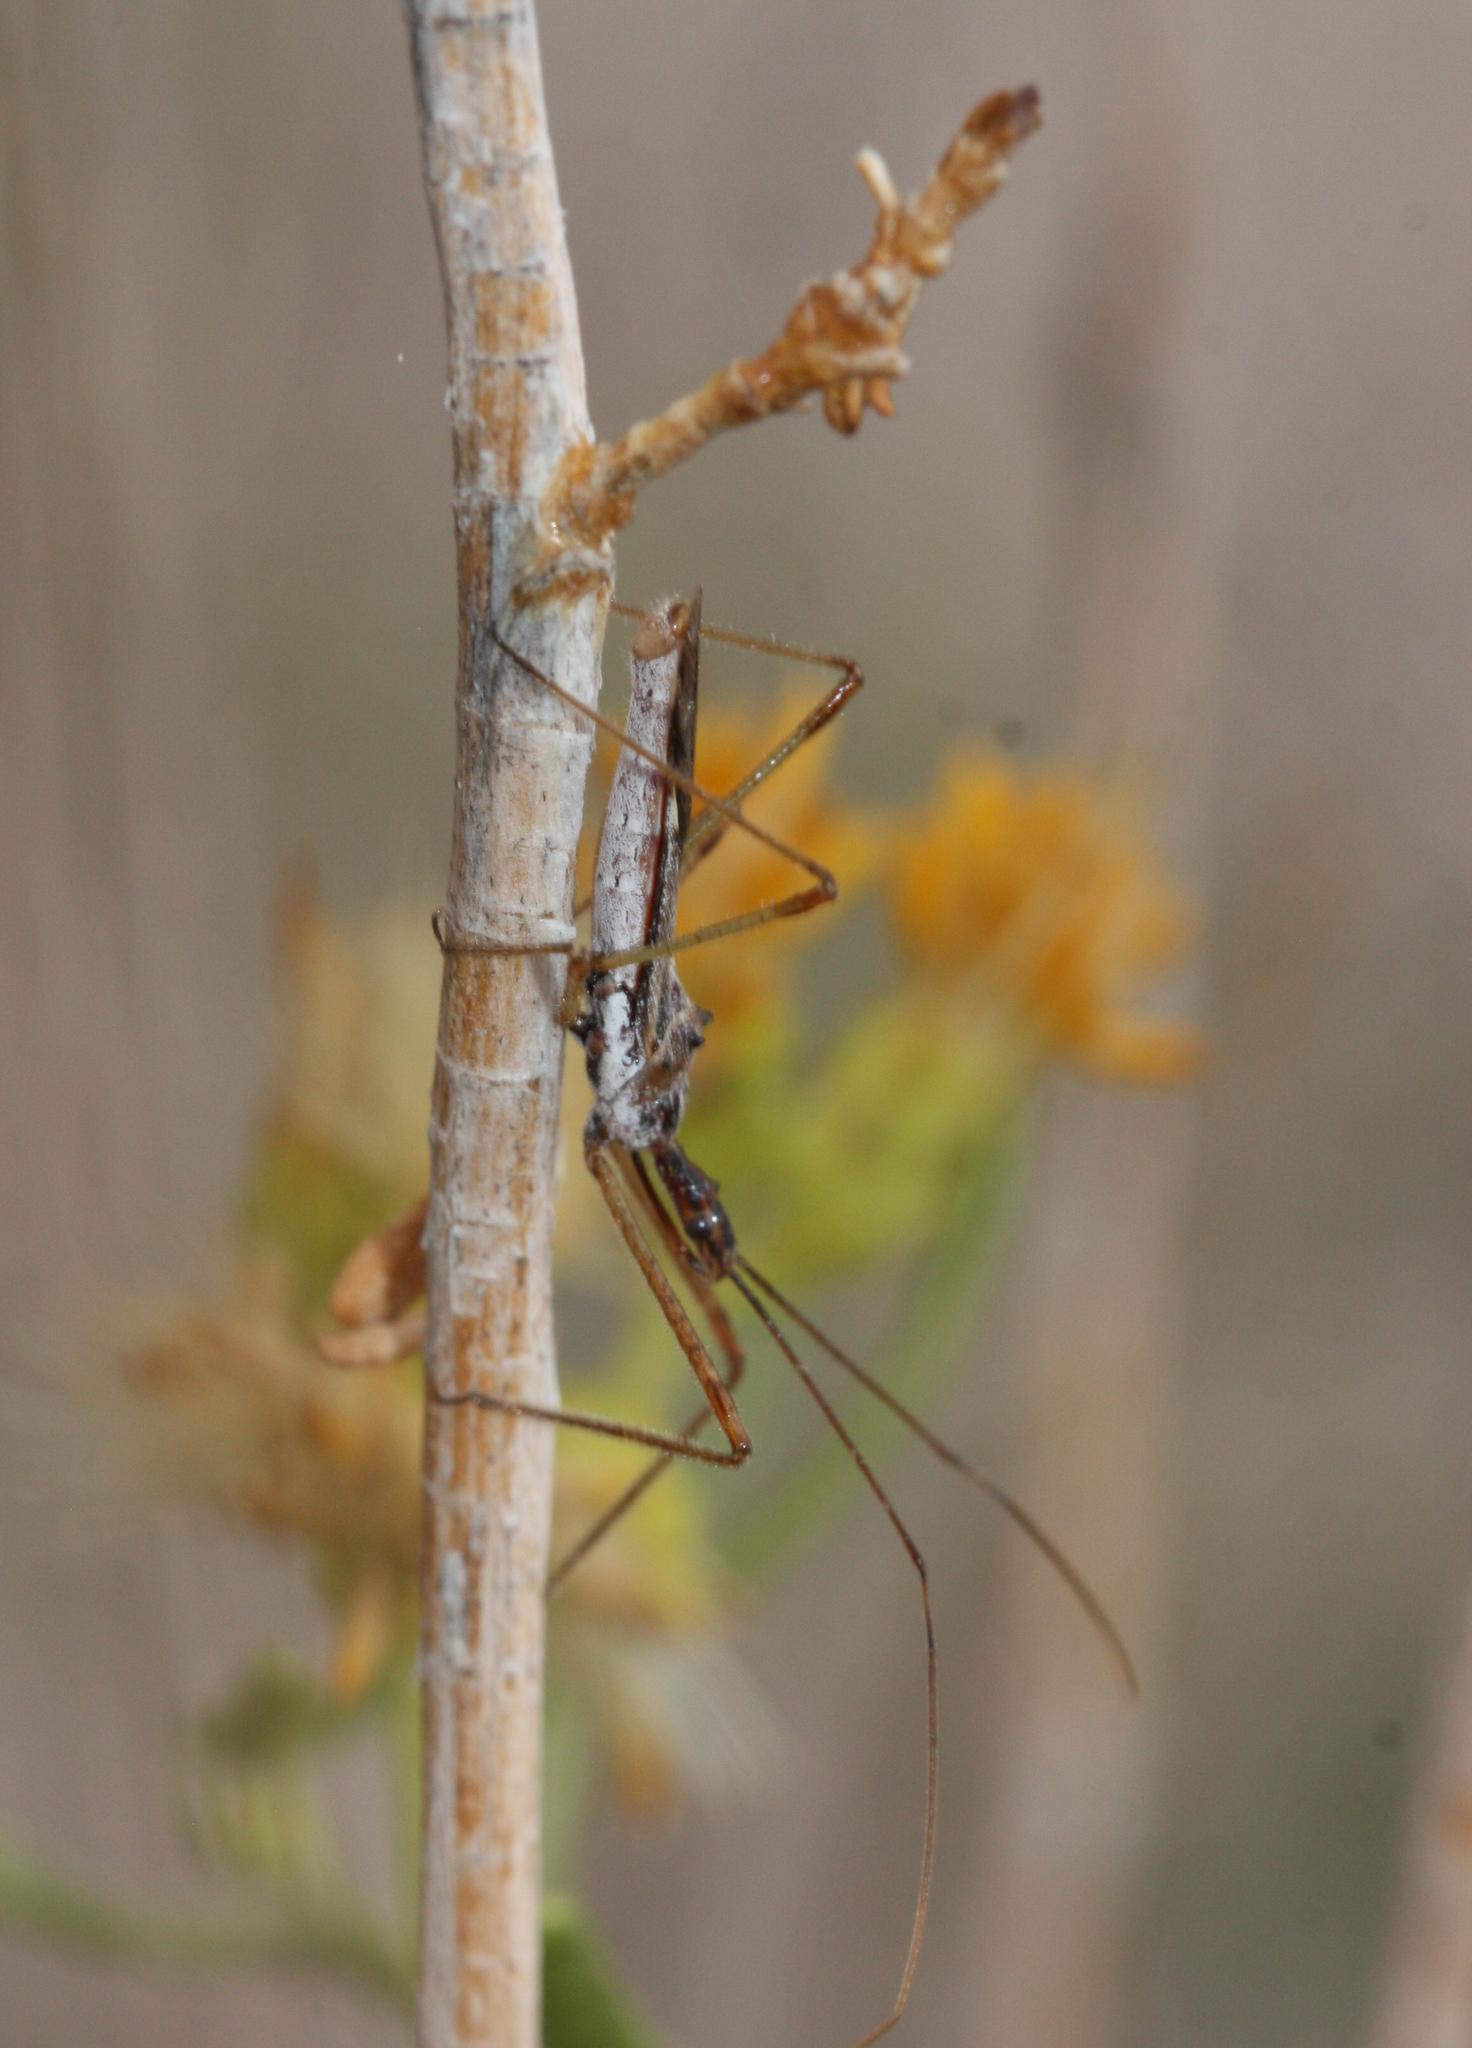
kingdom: Animalia
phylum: Arthropoda
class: Insecta
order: Hemiptera
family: Reduviidae
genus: Zelus
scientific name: Zelus tetracanthus
